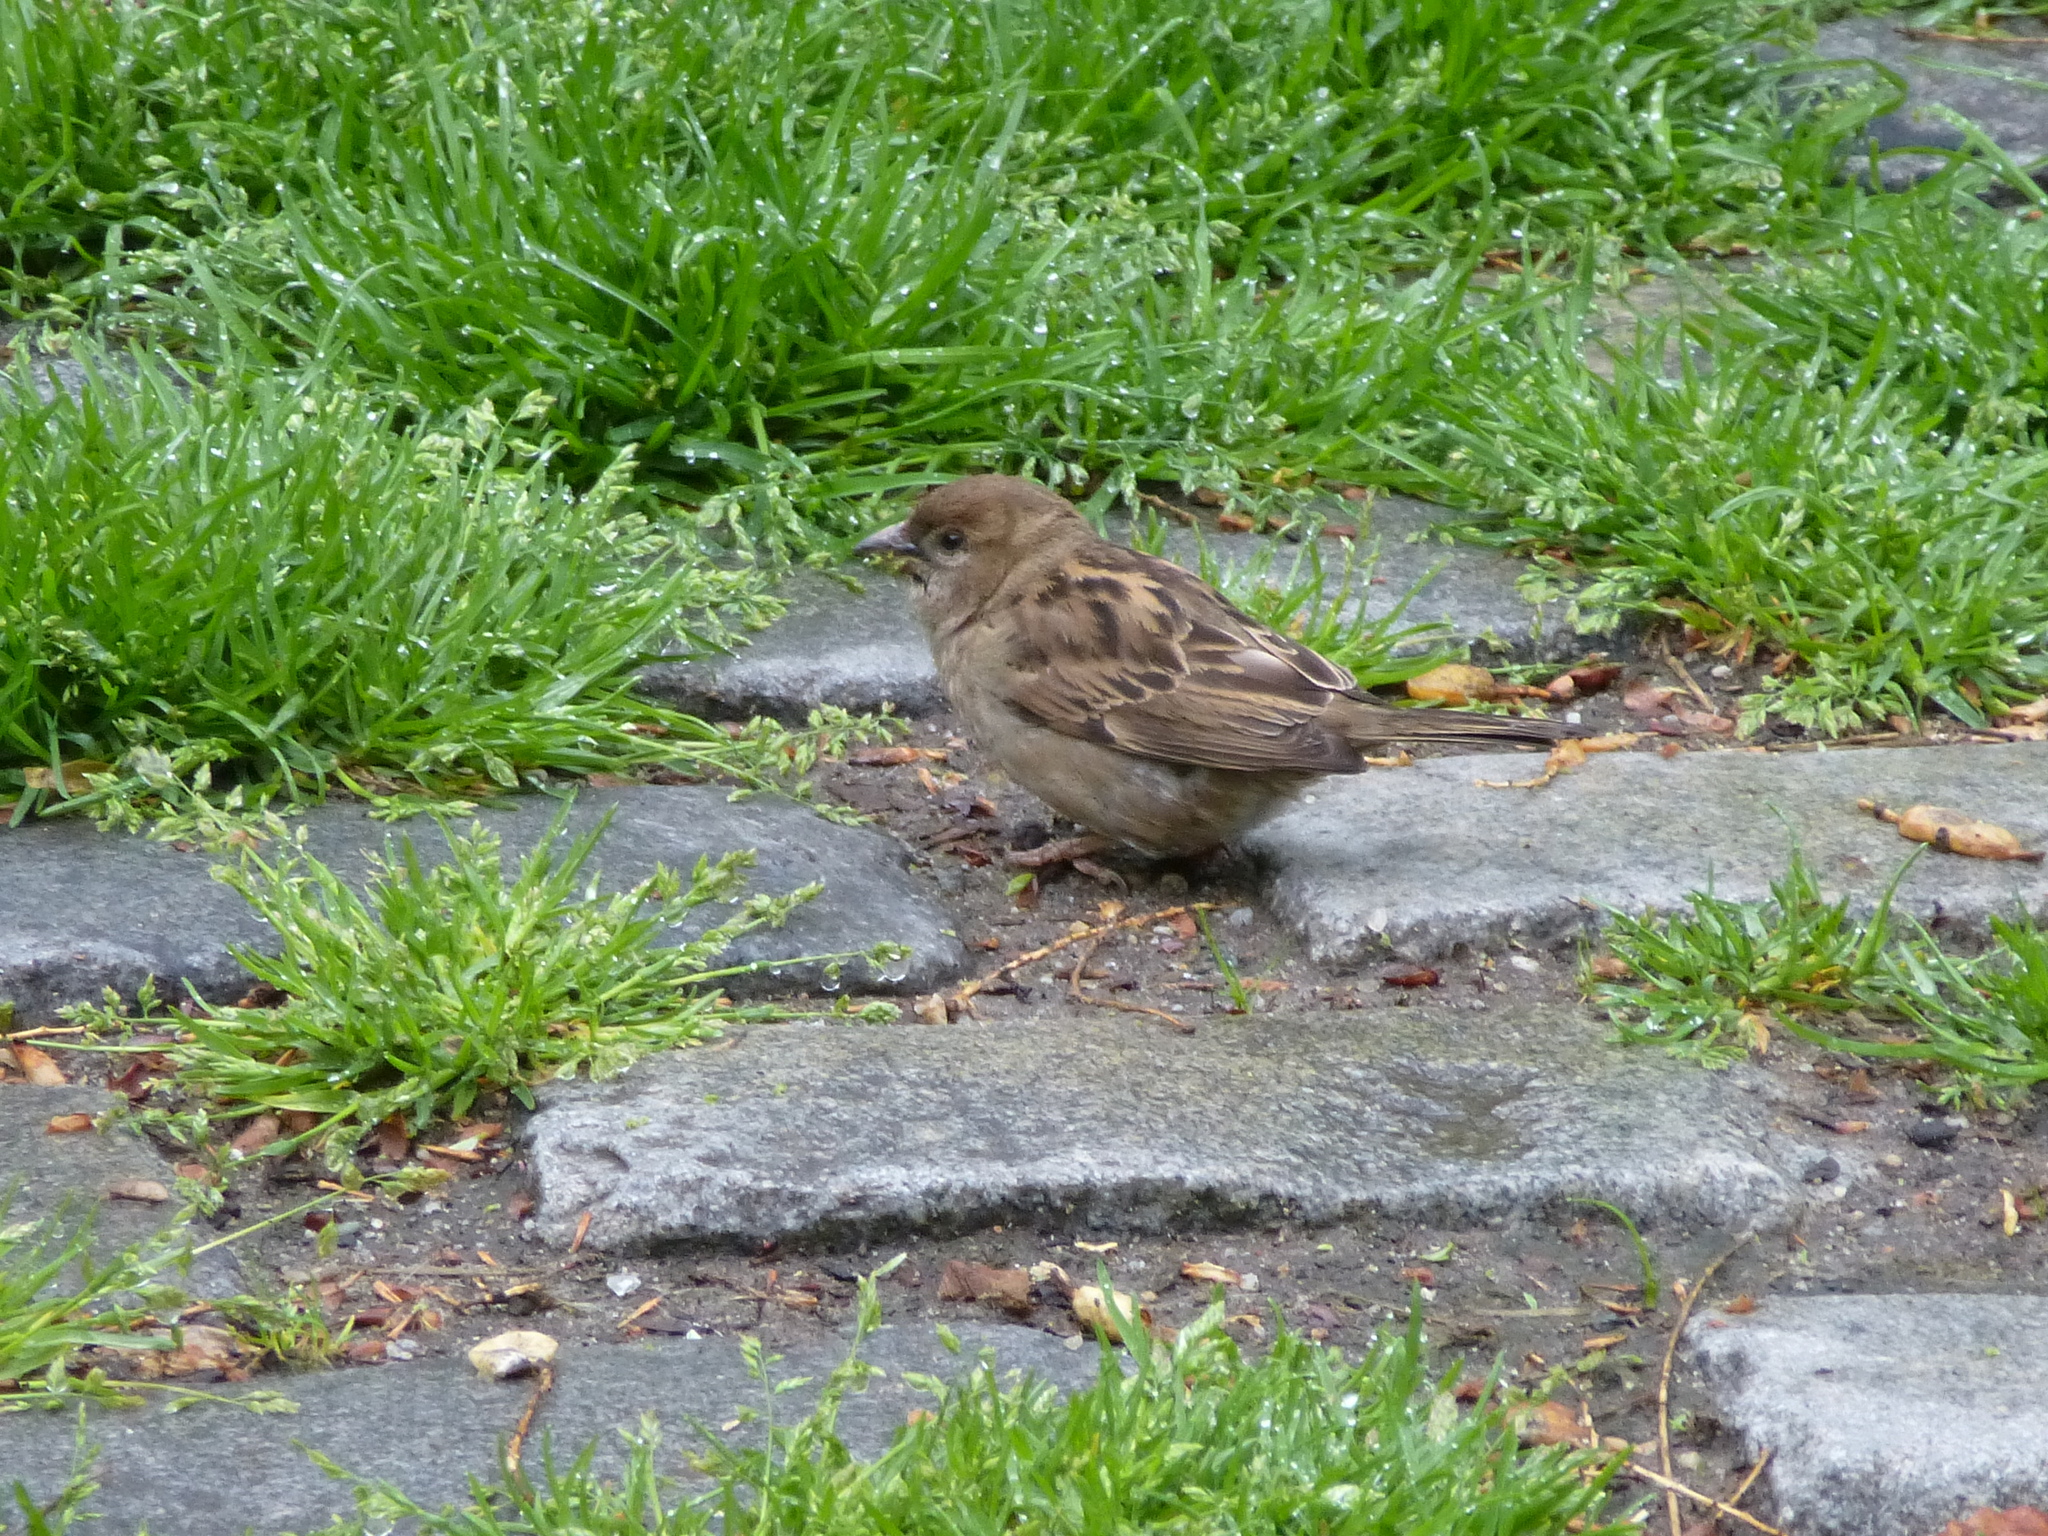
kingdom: Animalia
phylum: Chordata
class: Aves
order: Passeriformes
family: Passeridae
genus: Passer
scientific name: Passer domesticus
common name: House sparrow
